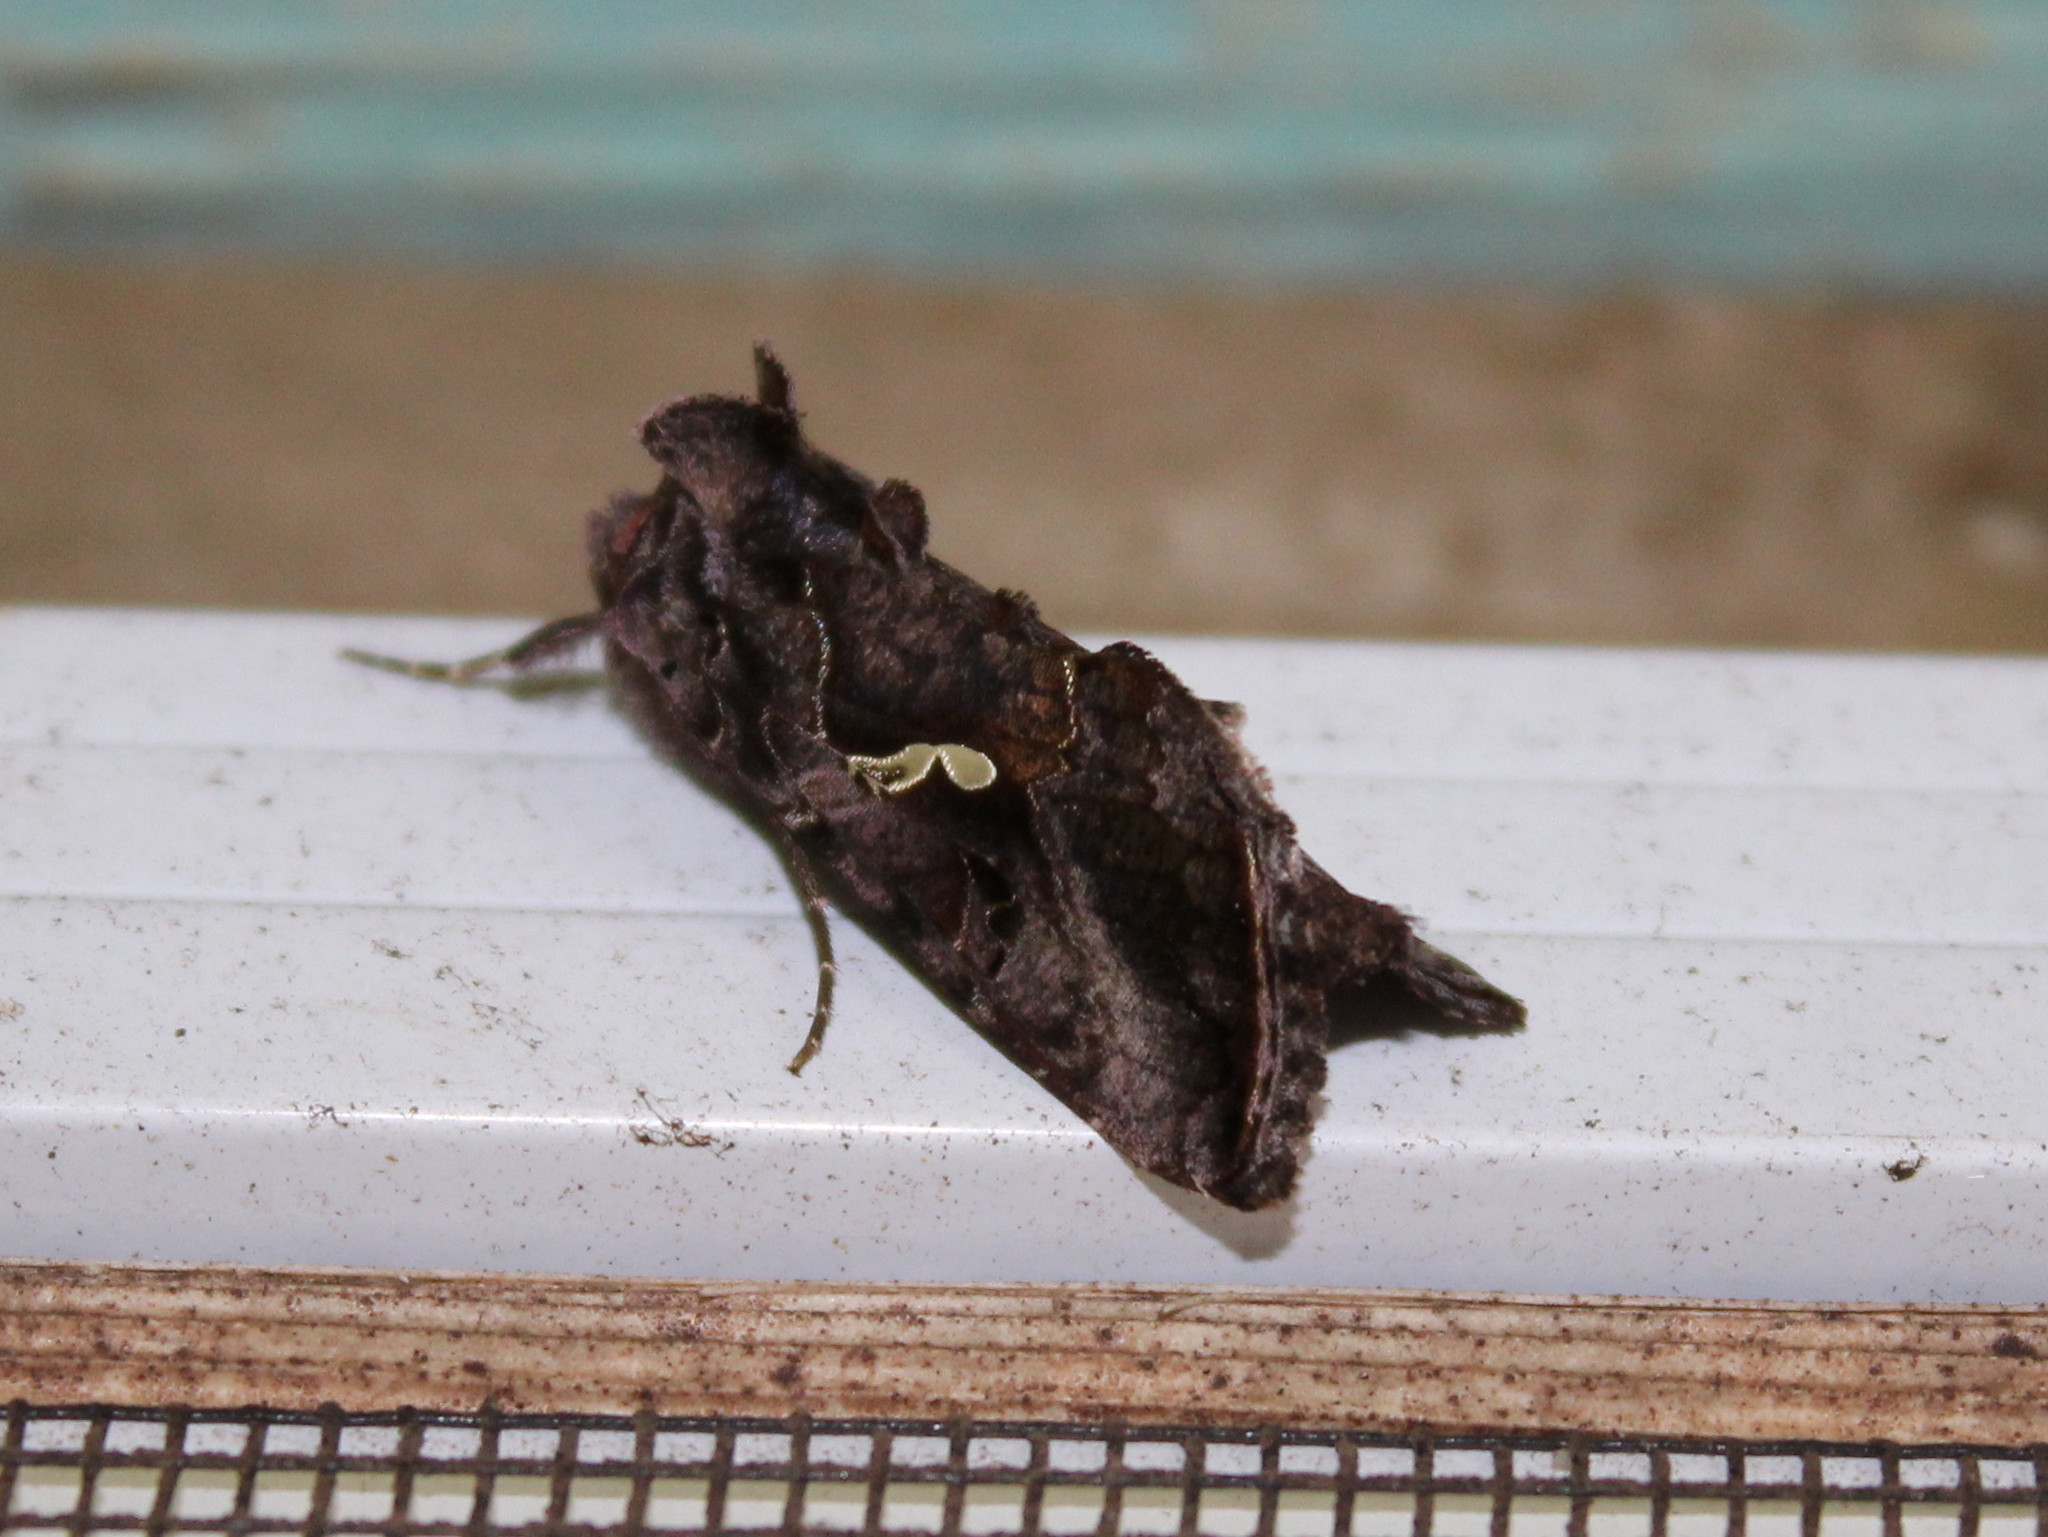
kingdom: Animalia
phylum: Arthropoda
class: Insecta
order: Lepidoptera
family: Noctuidae
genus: Autographa
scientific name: Autographa precationis
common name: Common looper moth
